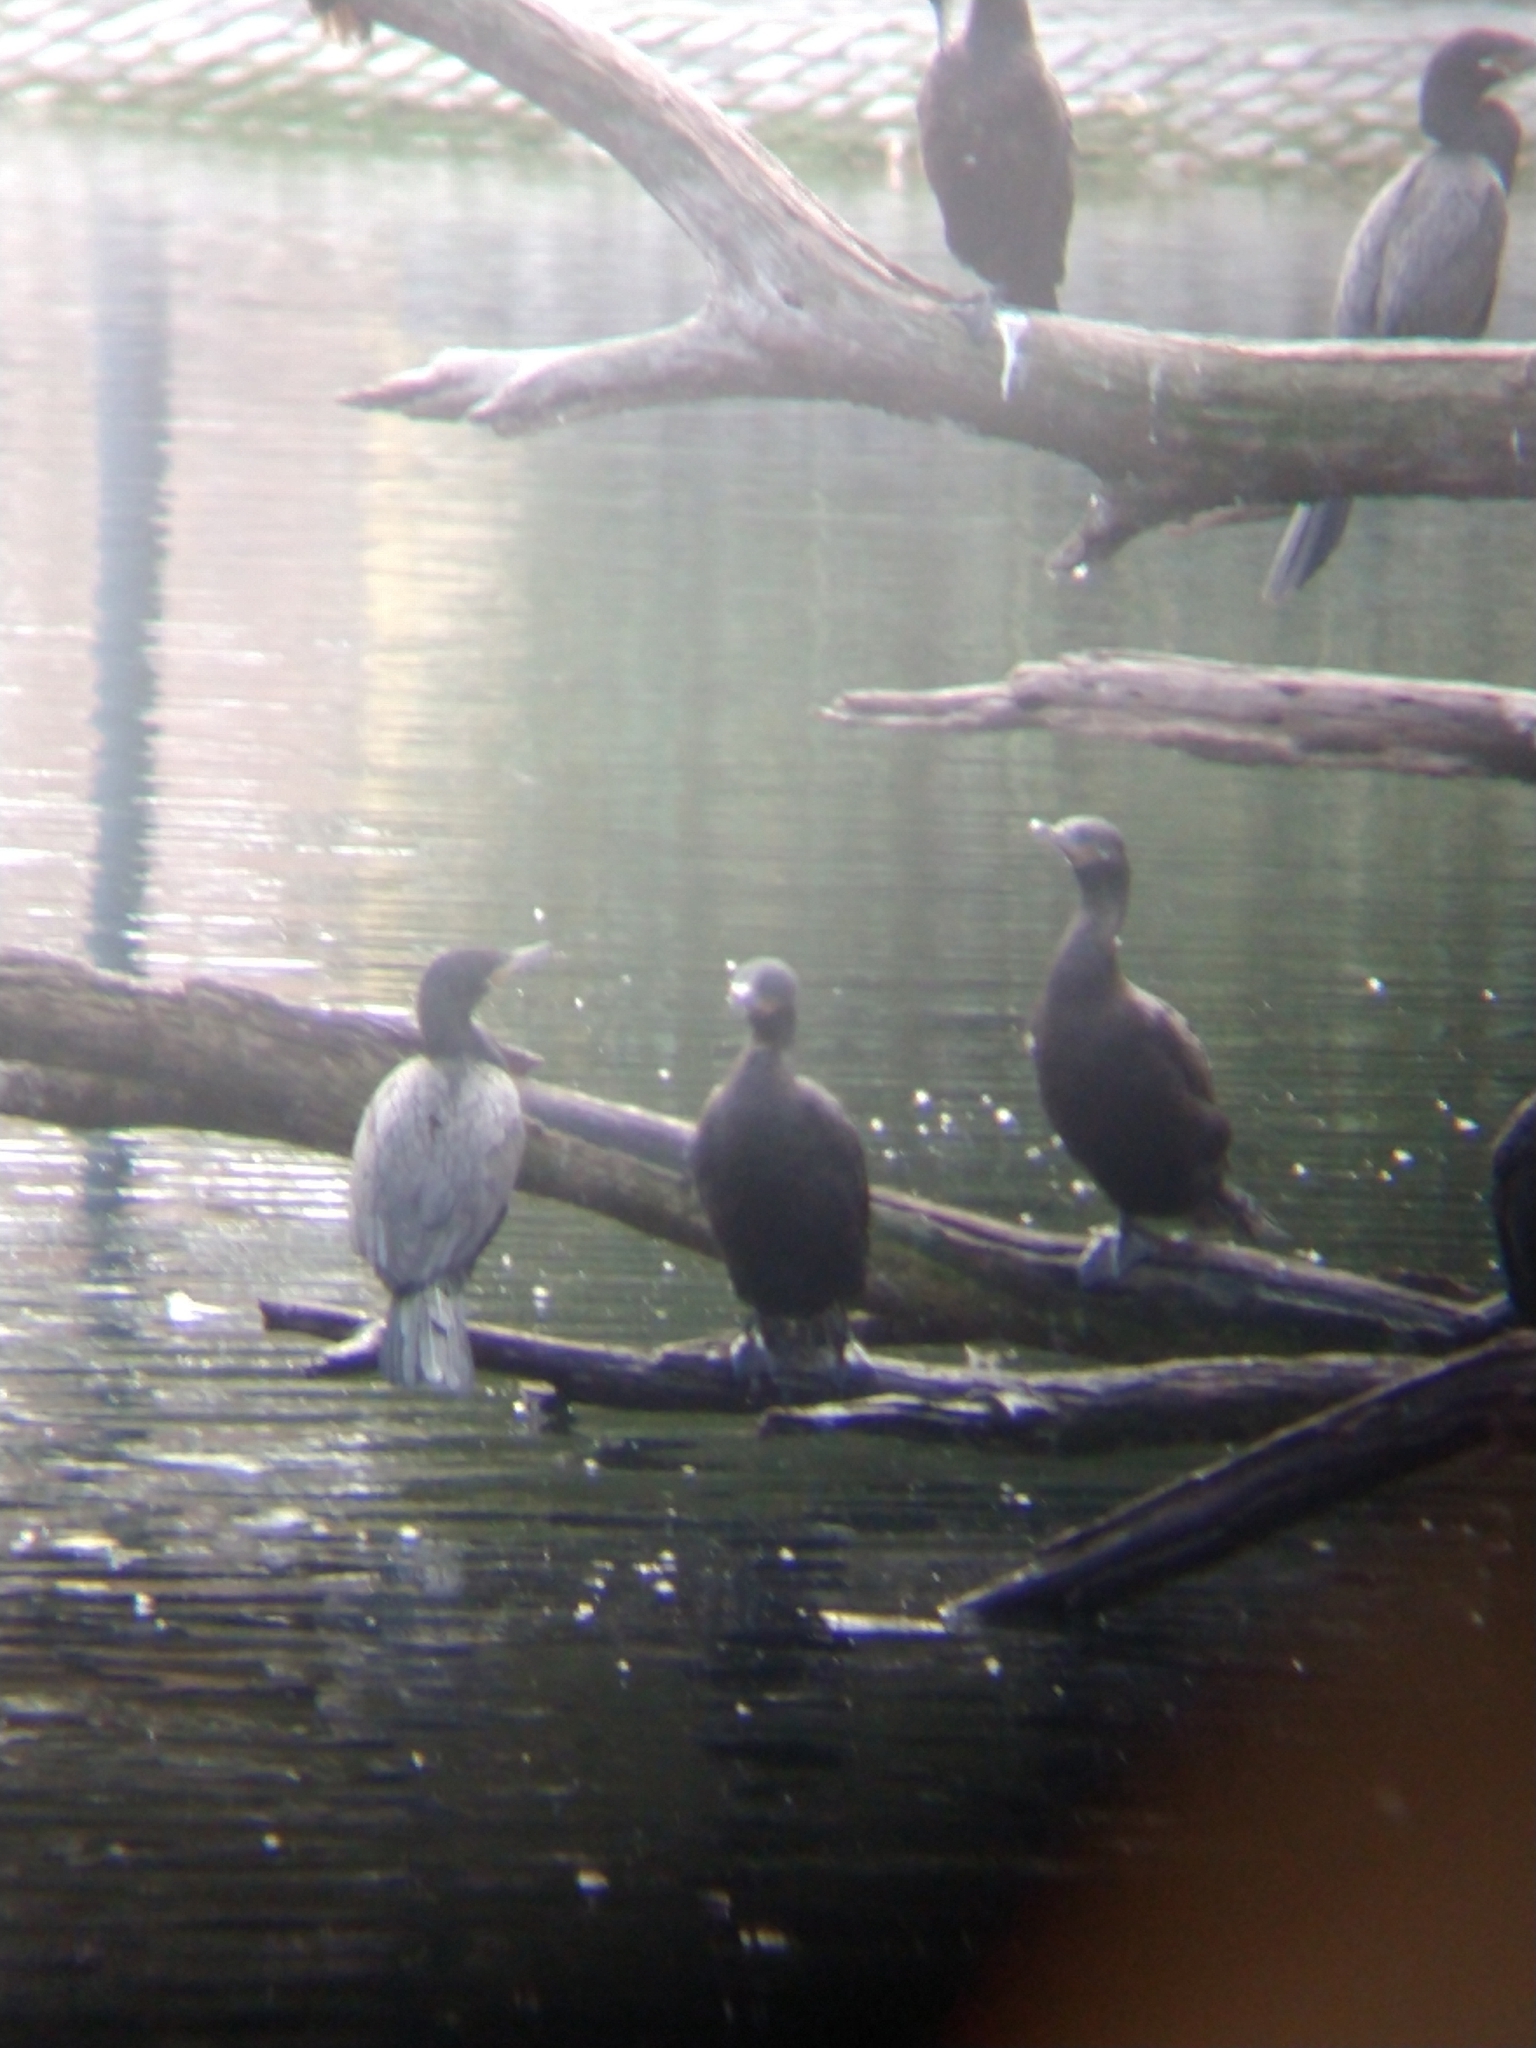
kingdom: Animalia
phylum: Chordata
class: Aves
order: Suliformes
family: Phalacrocoracidae
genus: Phalacrocorax
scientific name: Phalacrocorax brasilianus
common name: Neotropic cormorant
